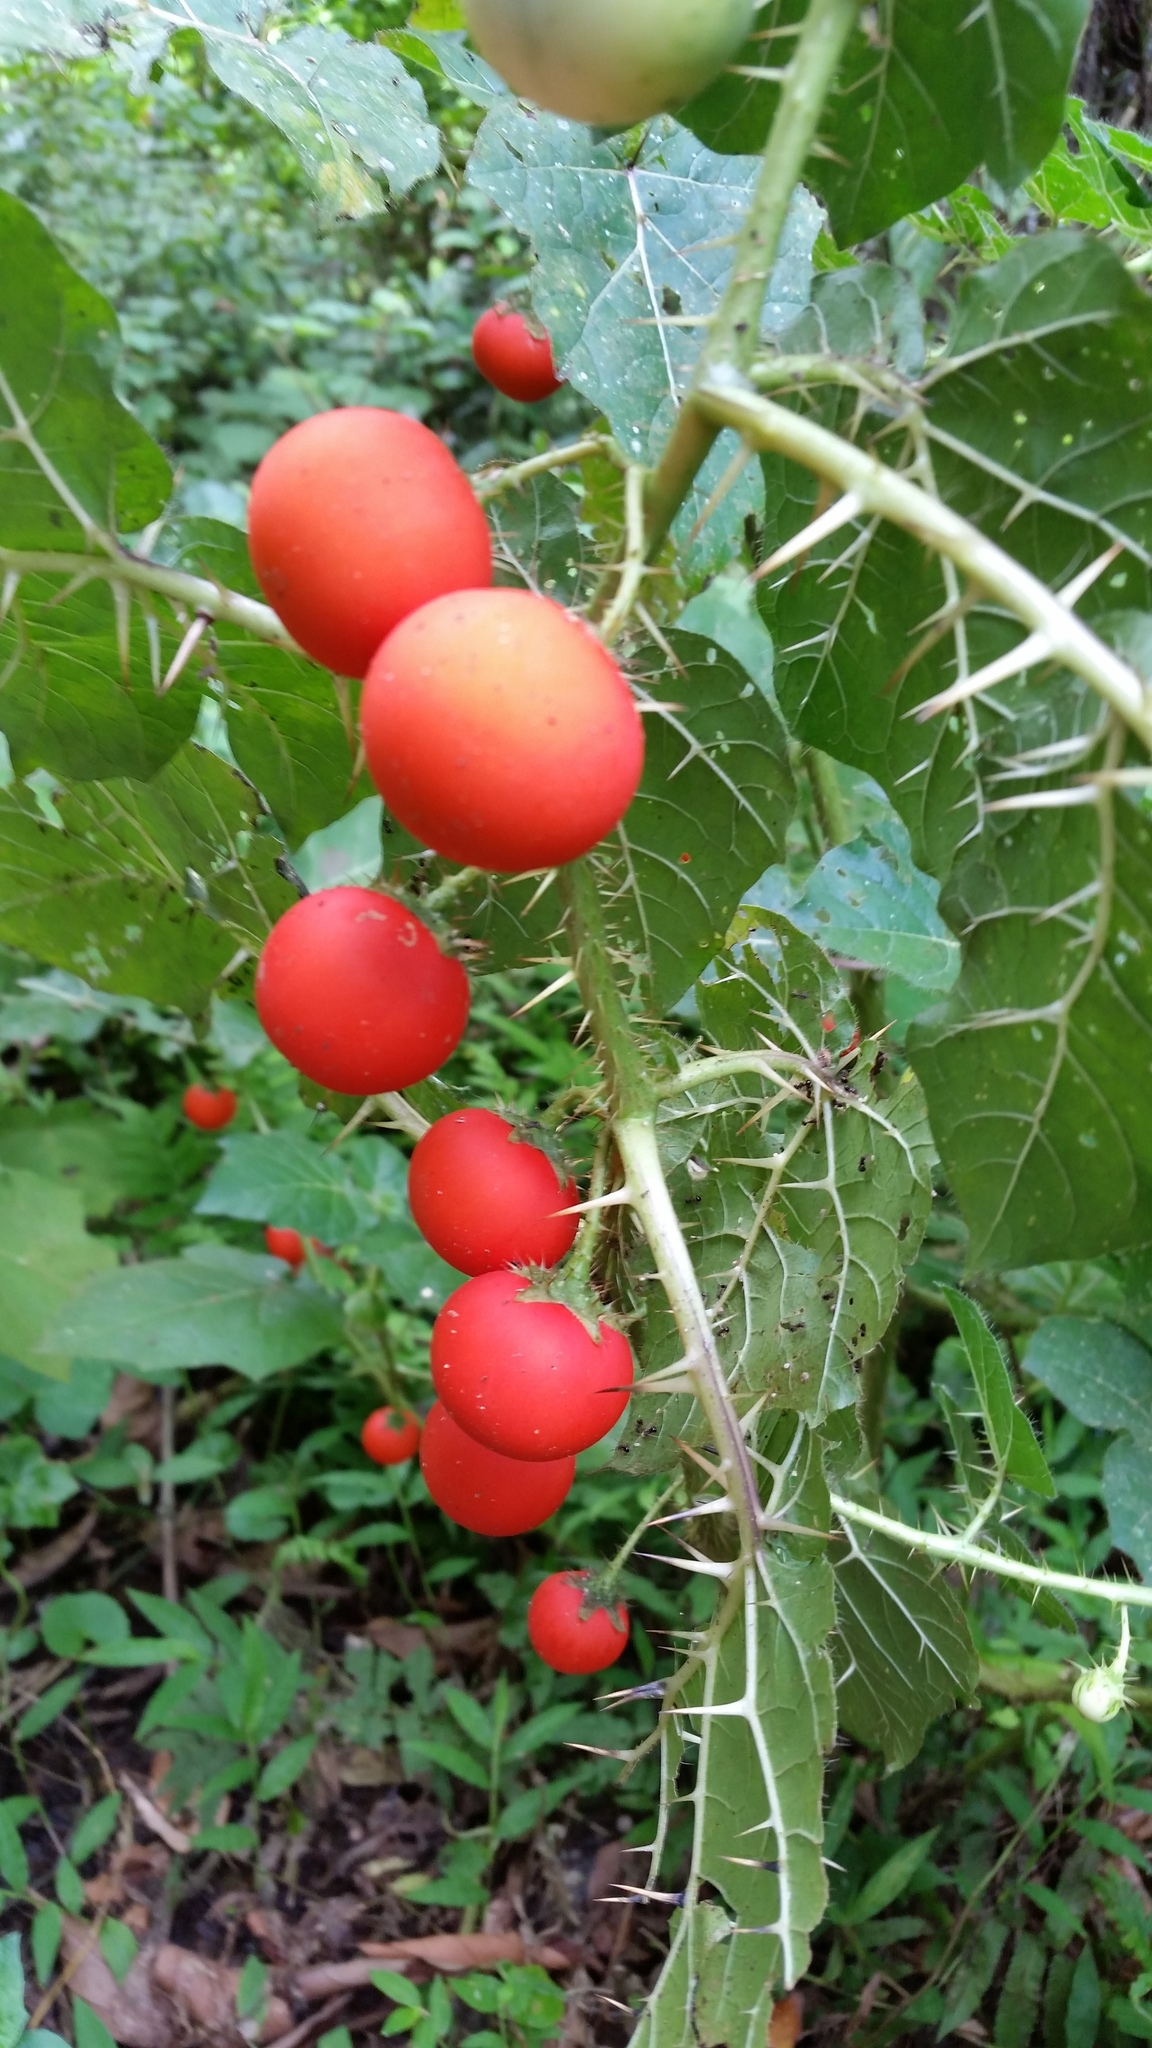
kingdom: Plantae
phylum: Tracheophyta
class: Magnoliopsida
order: Solanales
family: Solanaceae
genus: Solanum
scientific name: Solanum capsicoides
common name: Cockroach berry
